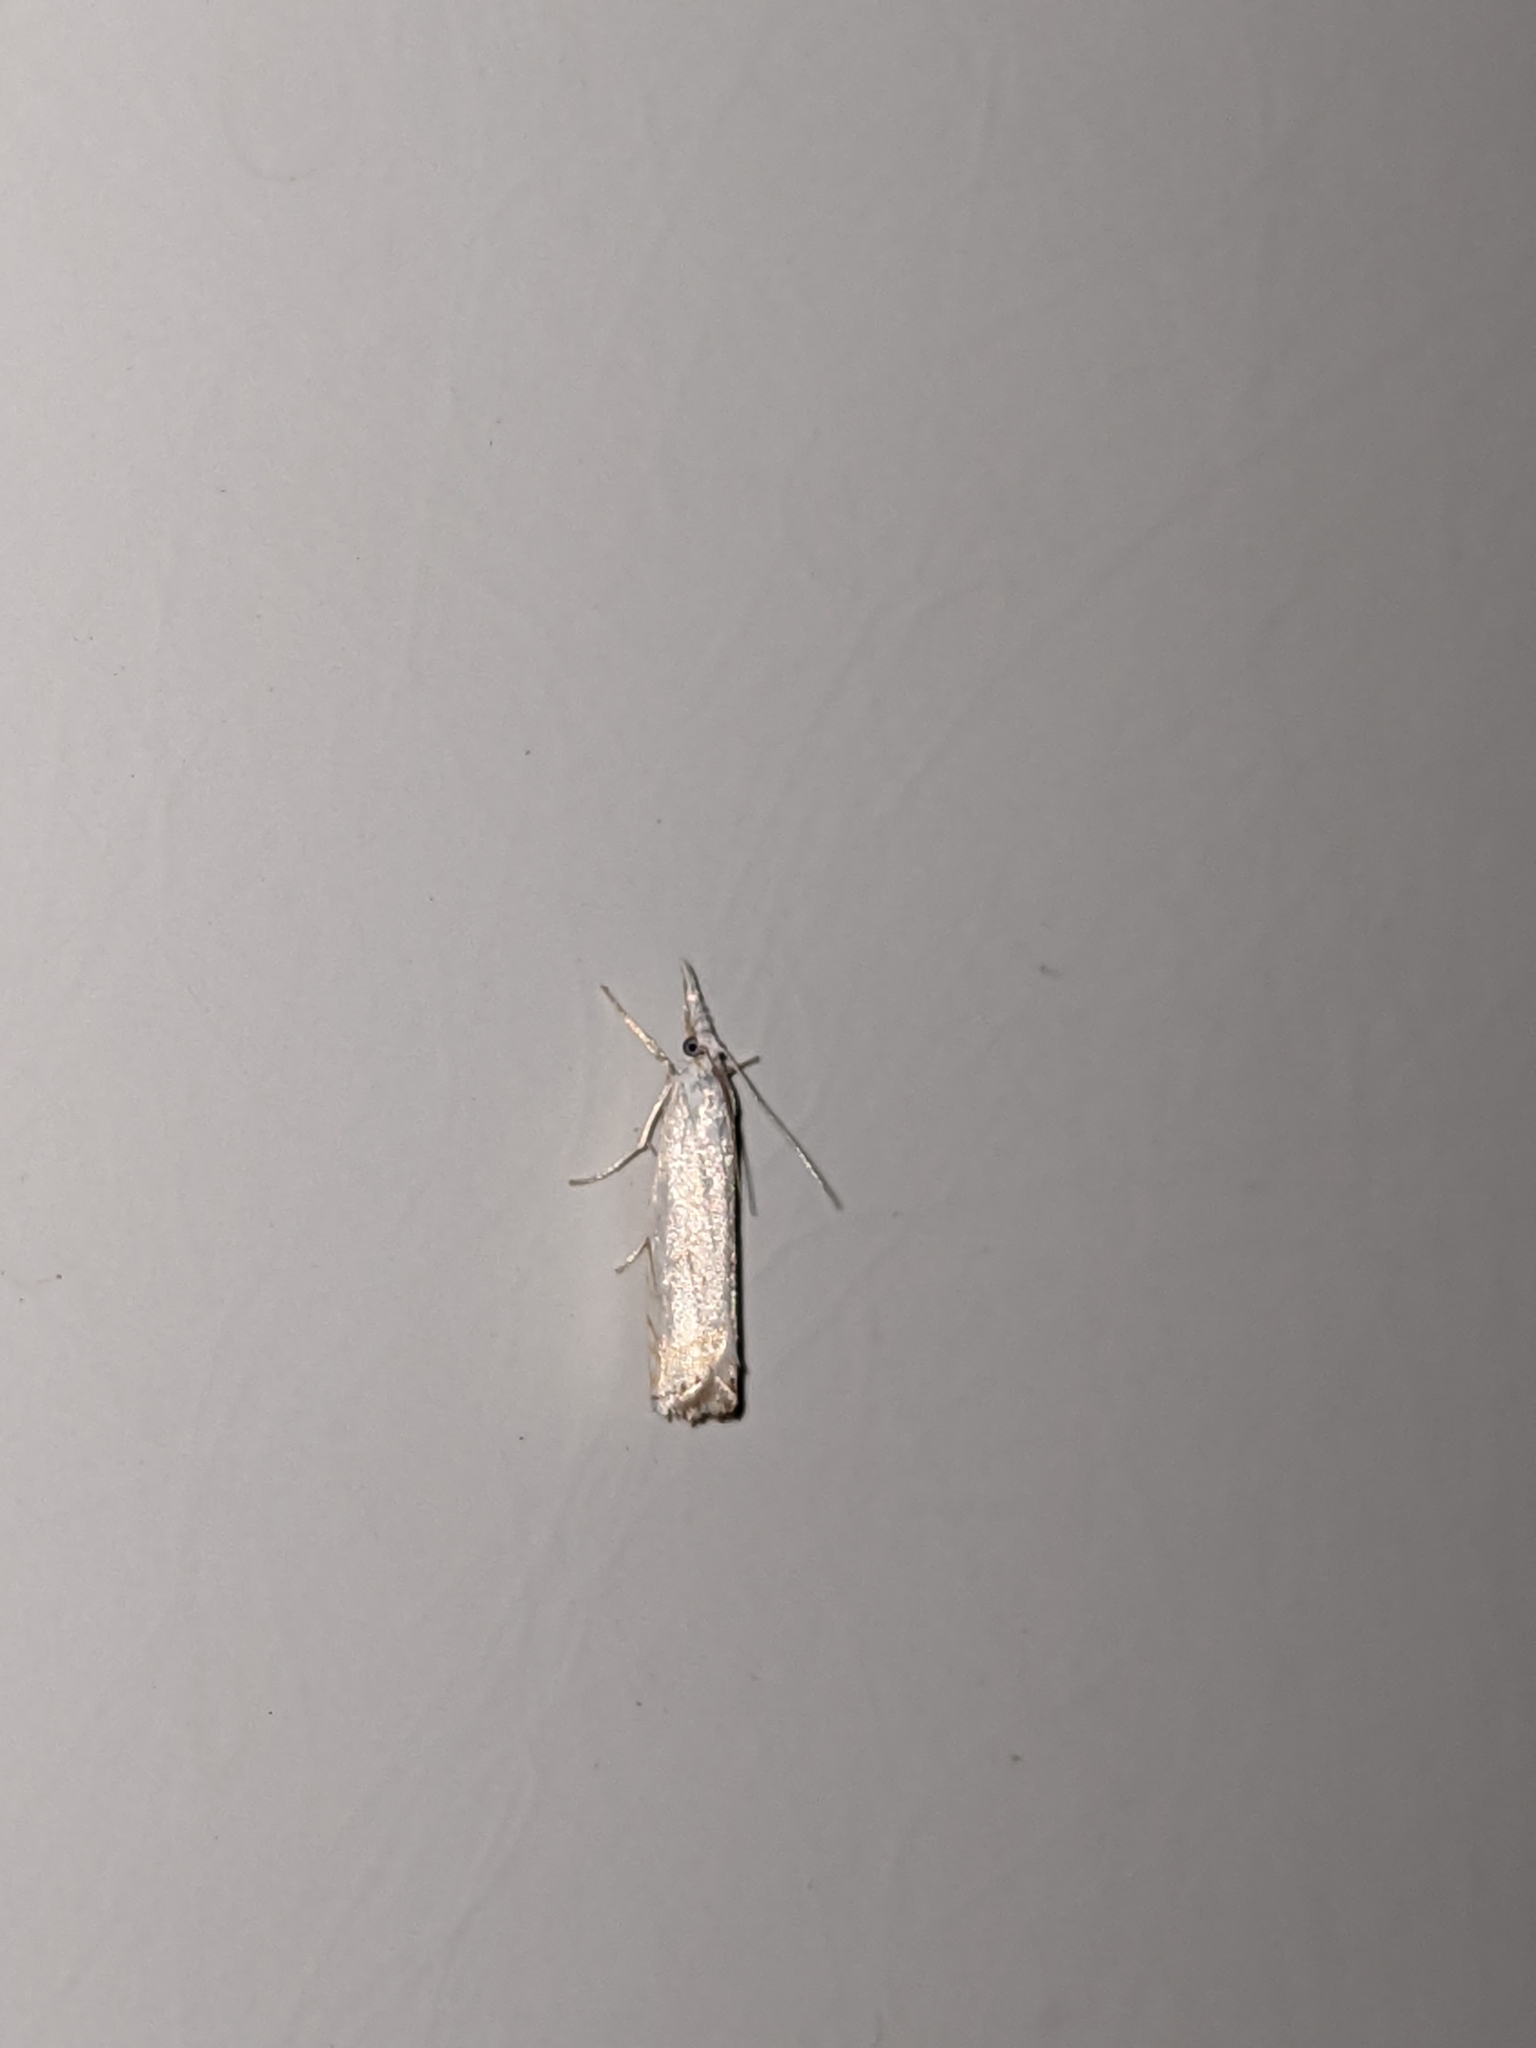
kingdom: Animalia
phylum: Arthropoda
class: Insecta
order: Lepidoptera
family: Crambidae
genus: Crambus
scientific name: Crambus albellus
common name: Small white grass-veneer
